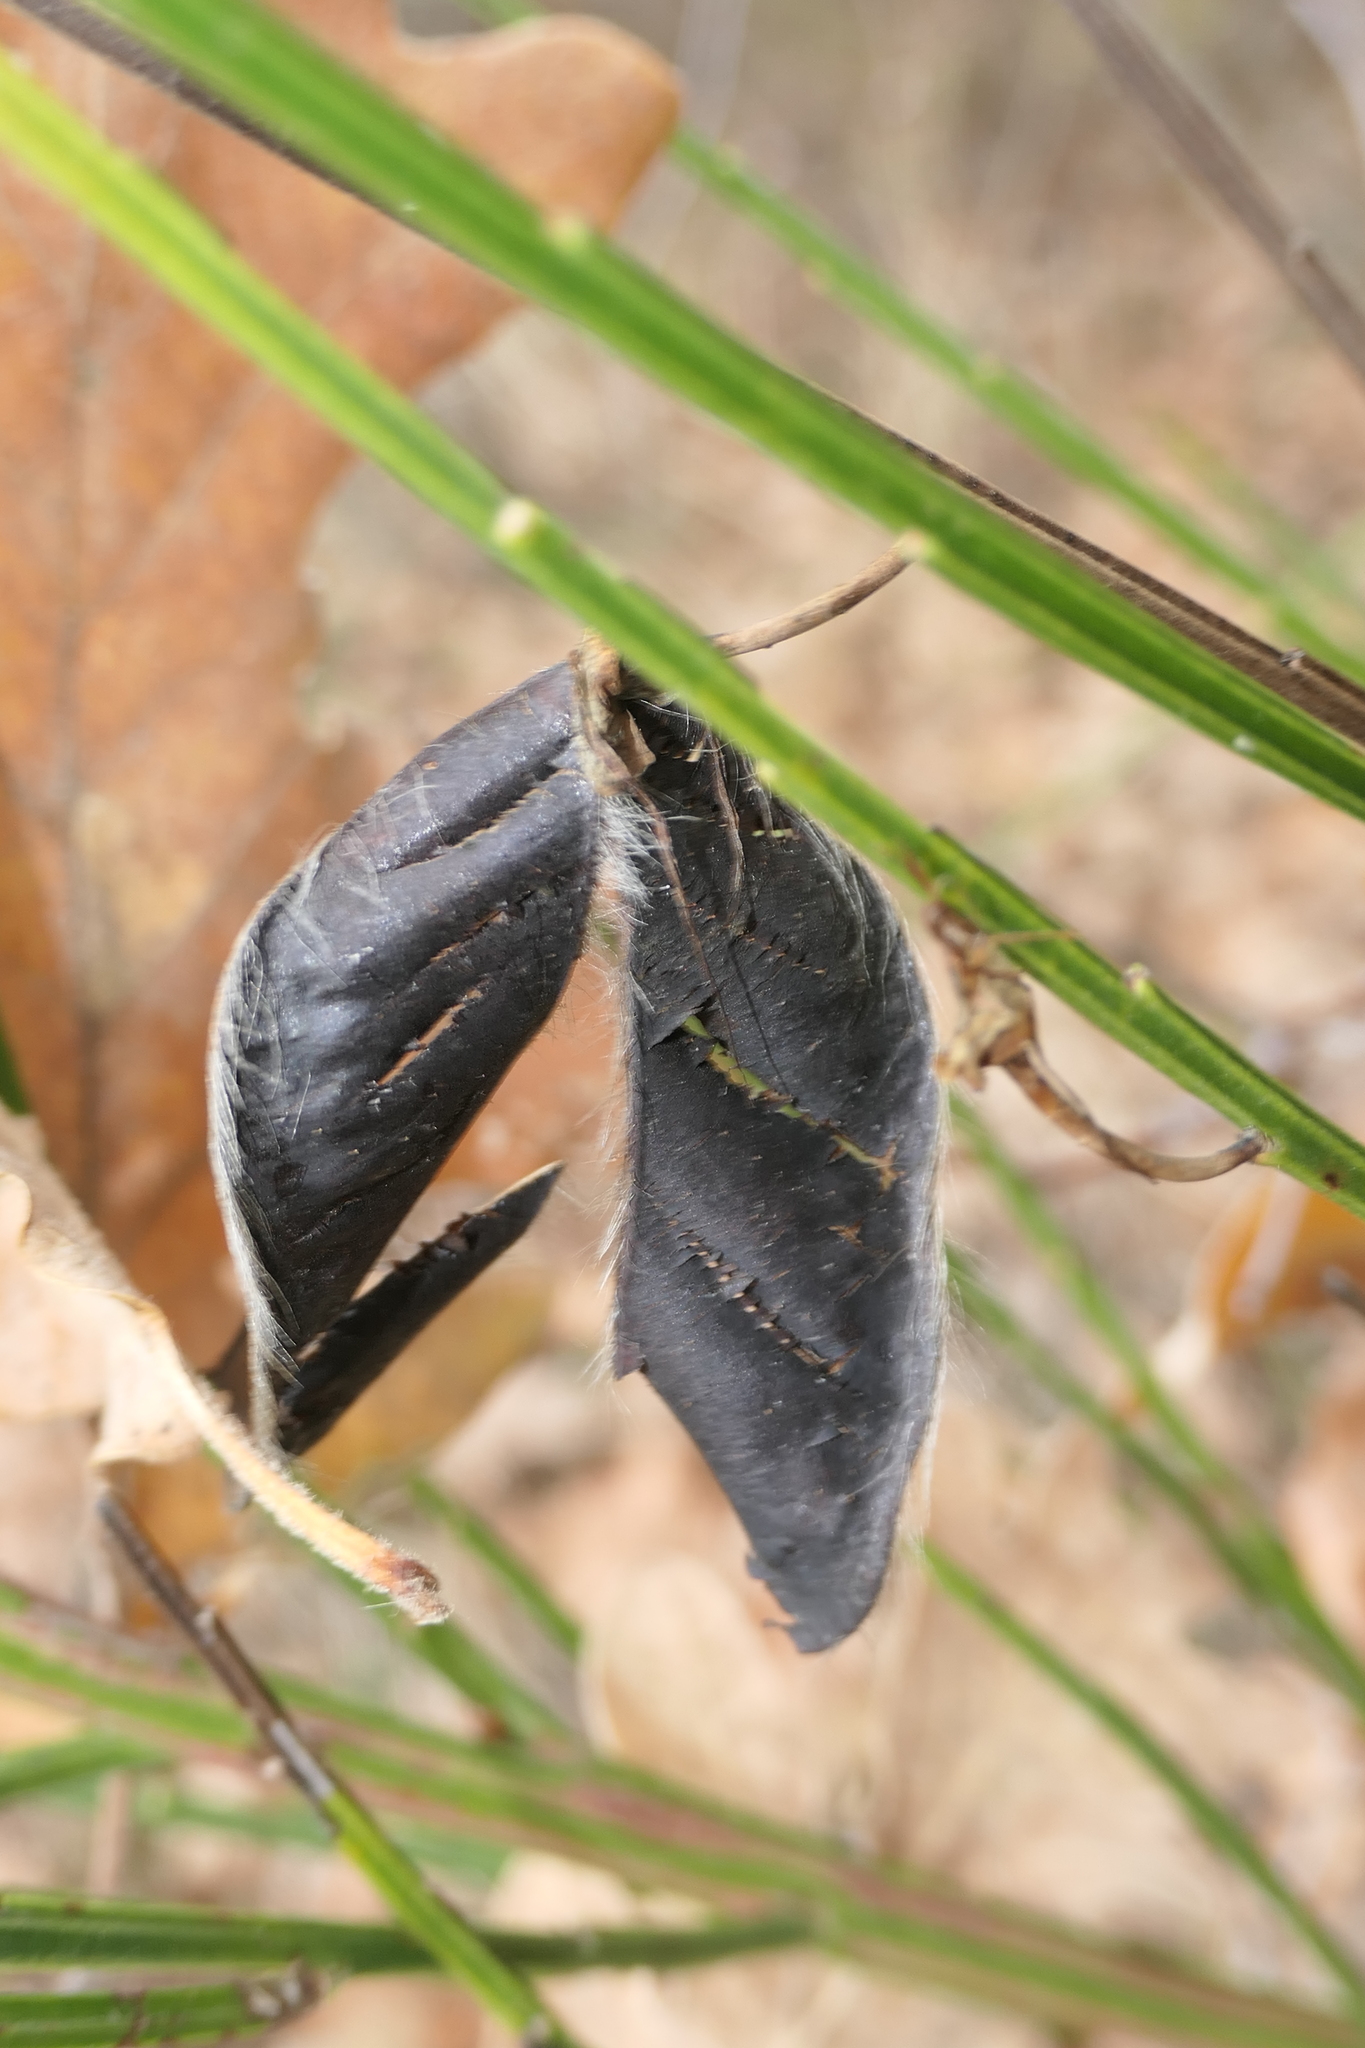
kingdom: Plantae
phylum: Tracheophyta
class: Magnoliopsida
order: Fabales
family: Fabaceae
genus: Cytisus
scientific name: Cytisus scoparius
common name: Scotch broom
